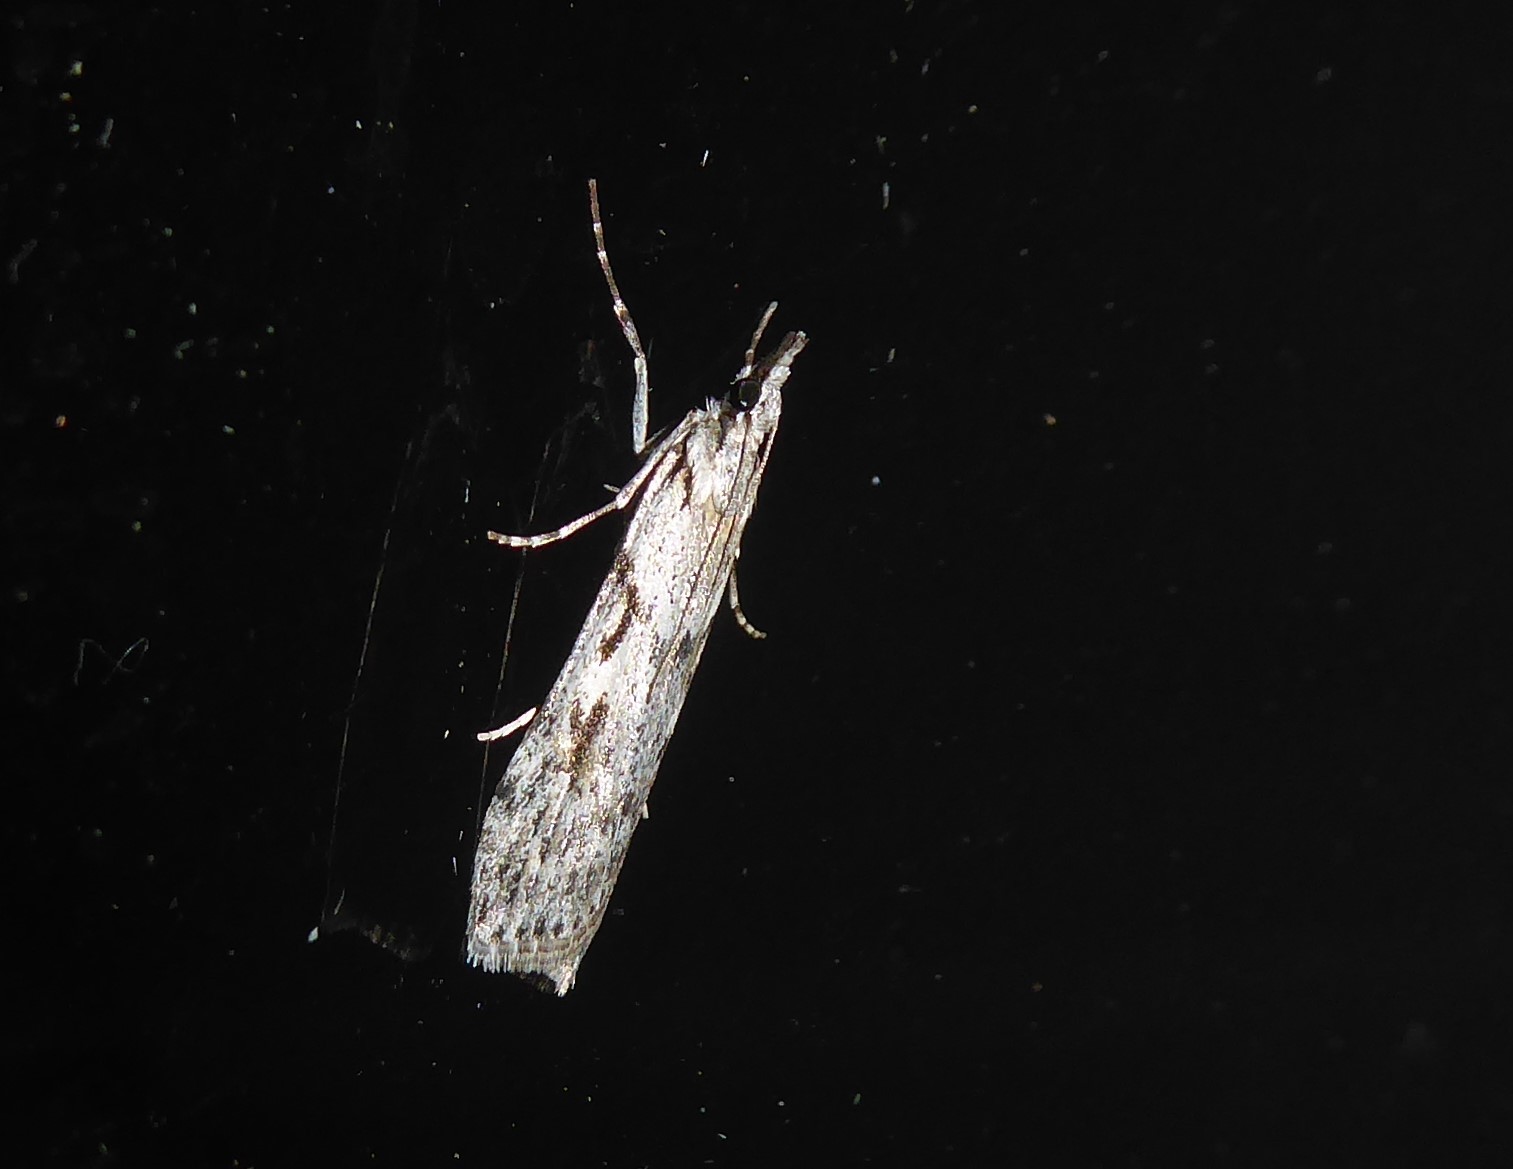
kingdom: Animalia
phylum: Arthropoda
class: Insecta
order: Lepidoptera
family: Crambidae
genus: Scoparia
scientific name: Scoparia halopis
